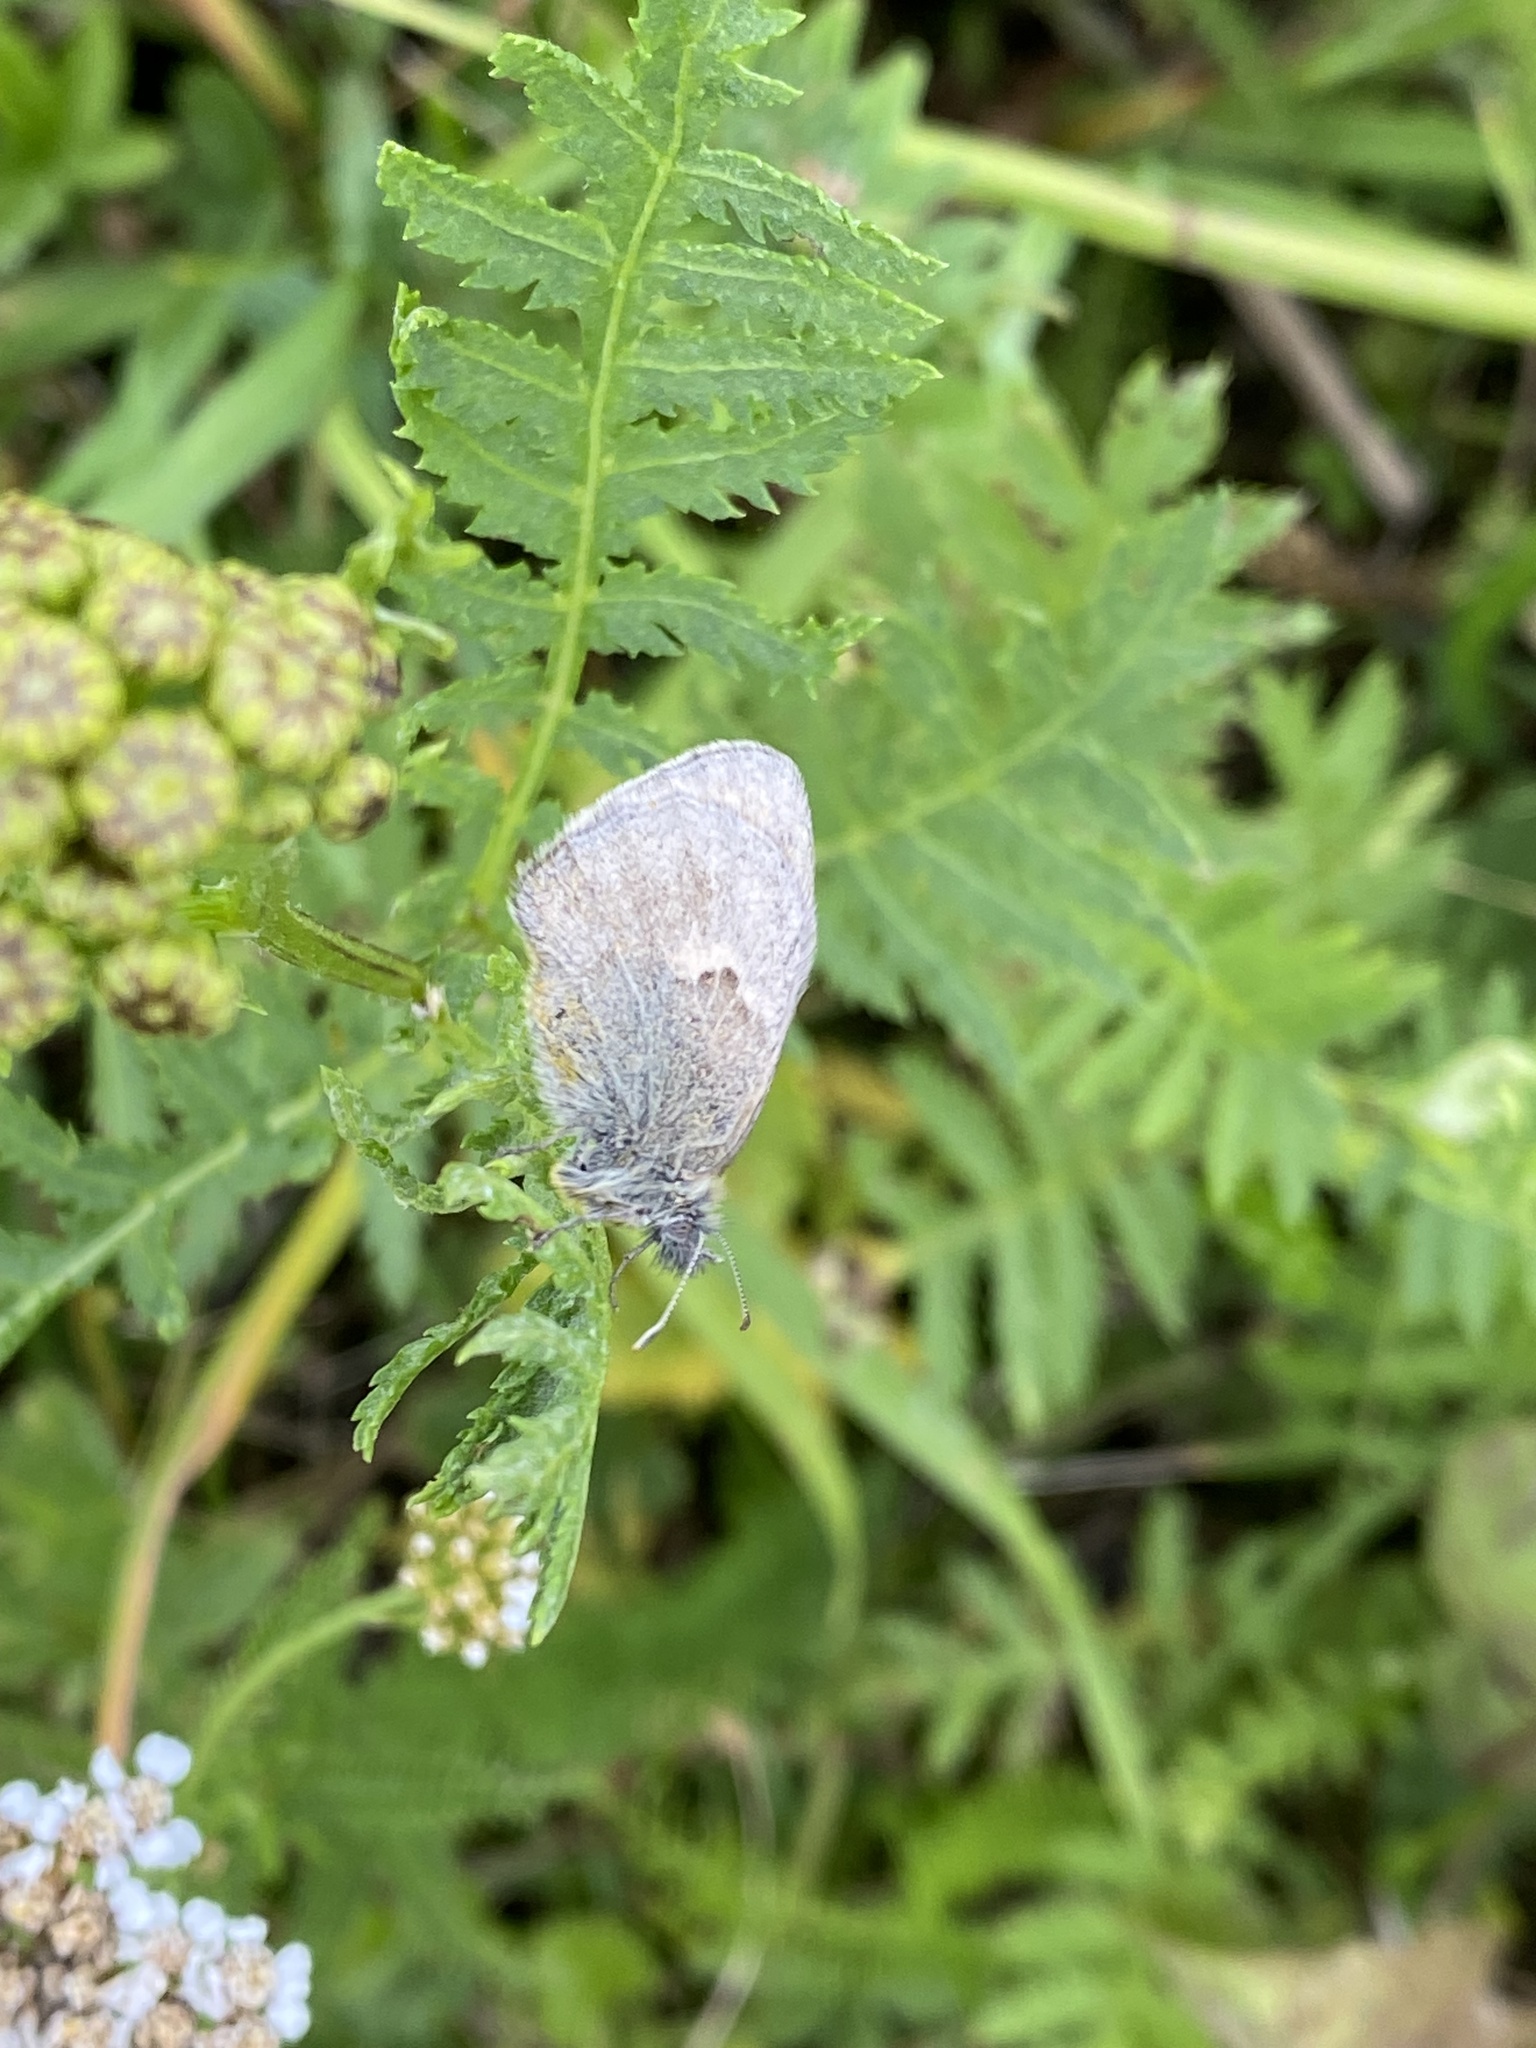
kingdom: Animalia
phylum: Arthropoda
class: Insecta
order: Lepidoptera
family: Nymphalidae
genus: Coenonympha
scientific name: Coenonympha pamphilus
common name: Small heath
